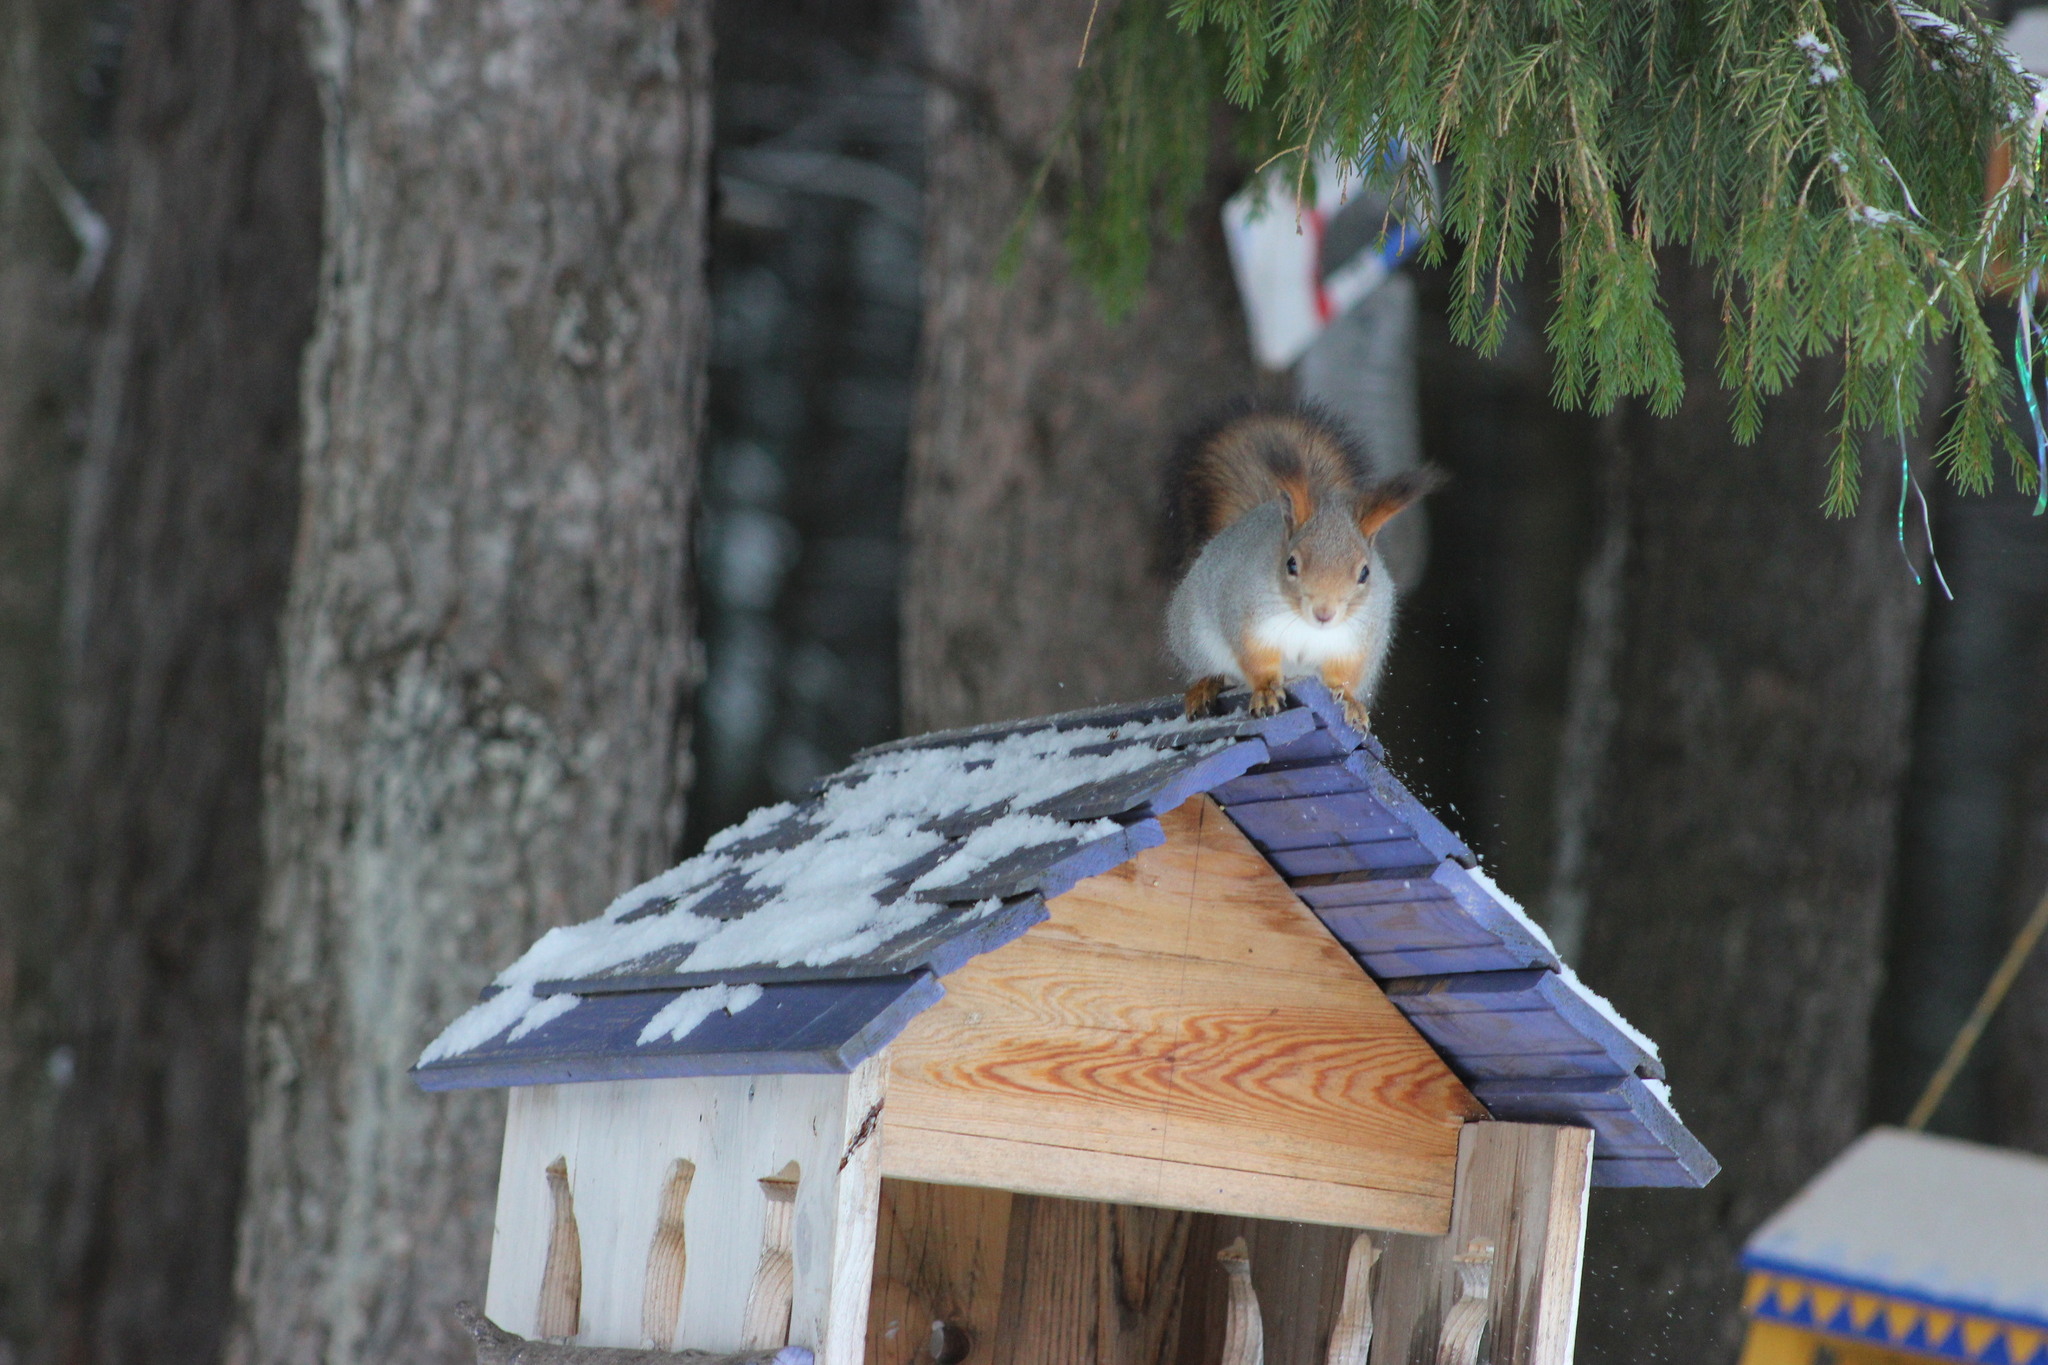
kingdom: Animalia
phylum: Chordata
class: Mammalia
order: Rodentia
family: Sciuridae
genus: Sciurus
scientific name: Sciurus vulgaris
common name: Eurasian red squirrel
